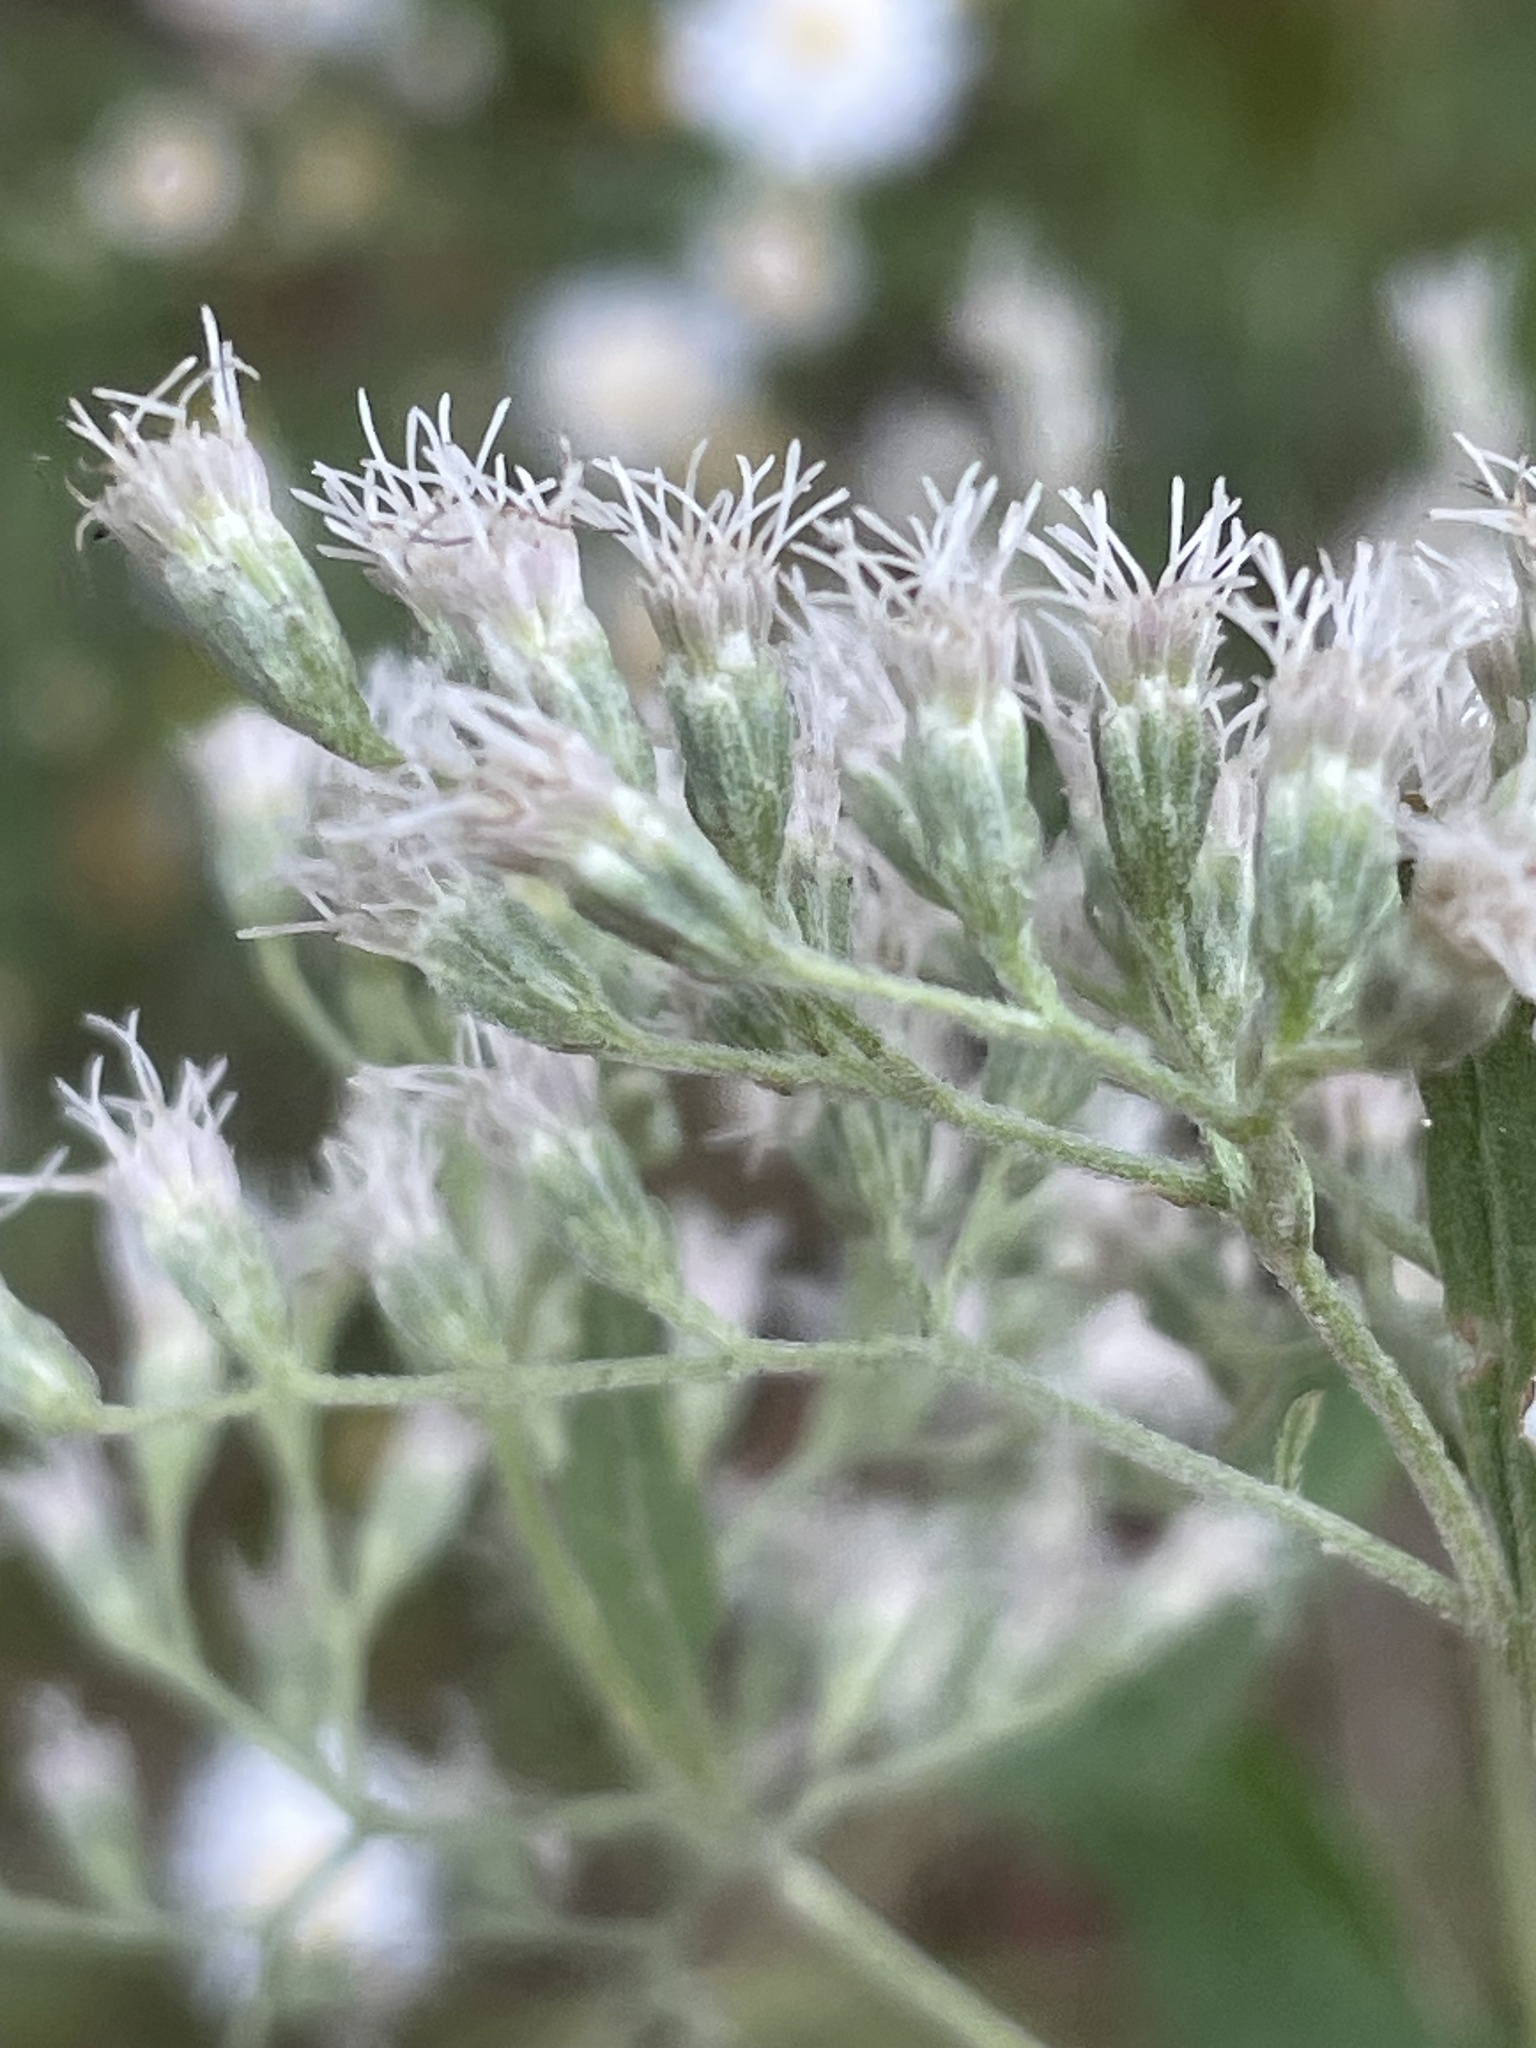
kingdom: Plantae
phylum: Tracheophyta
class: Magnoliopsida
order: Asterales
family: Asteraceae
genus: Eupatorium
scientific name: Eupatorium serotinum
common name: Late boneset
